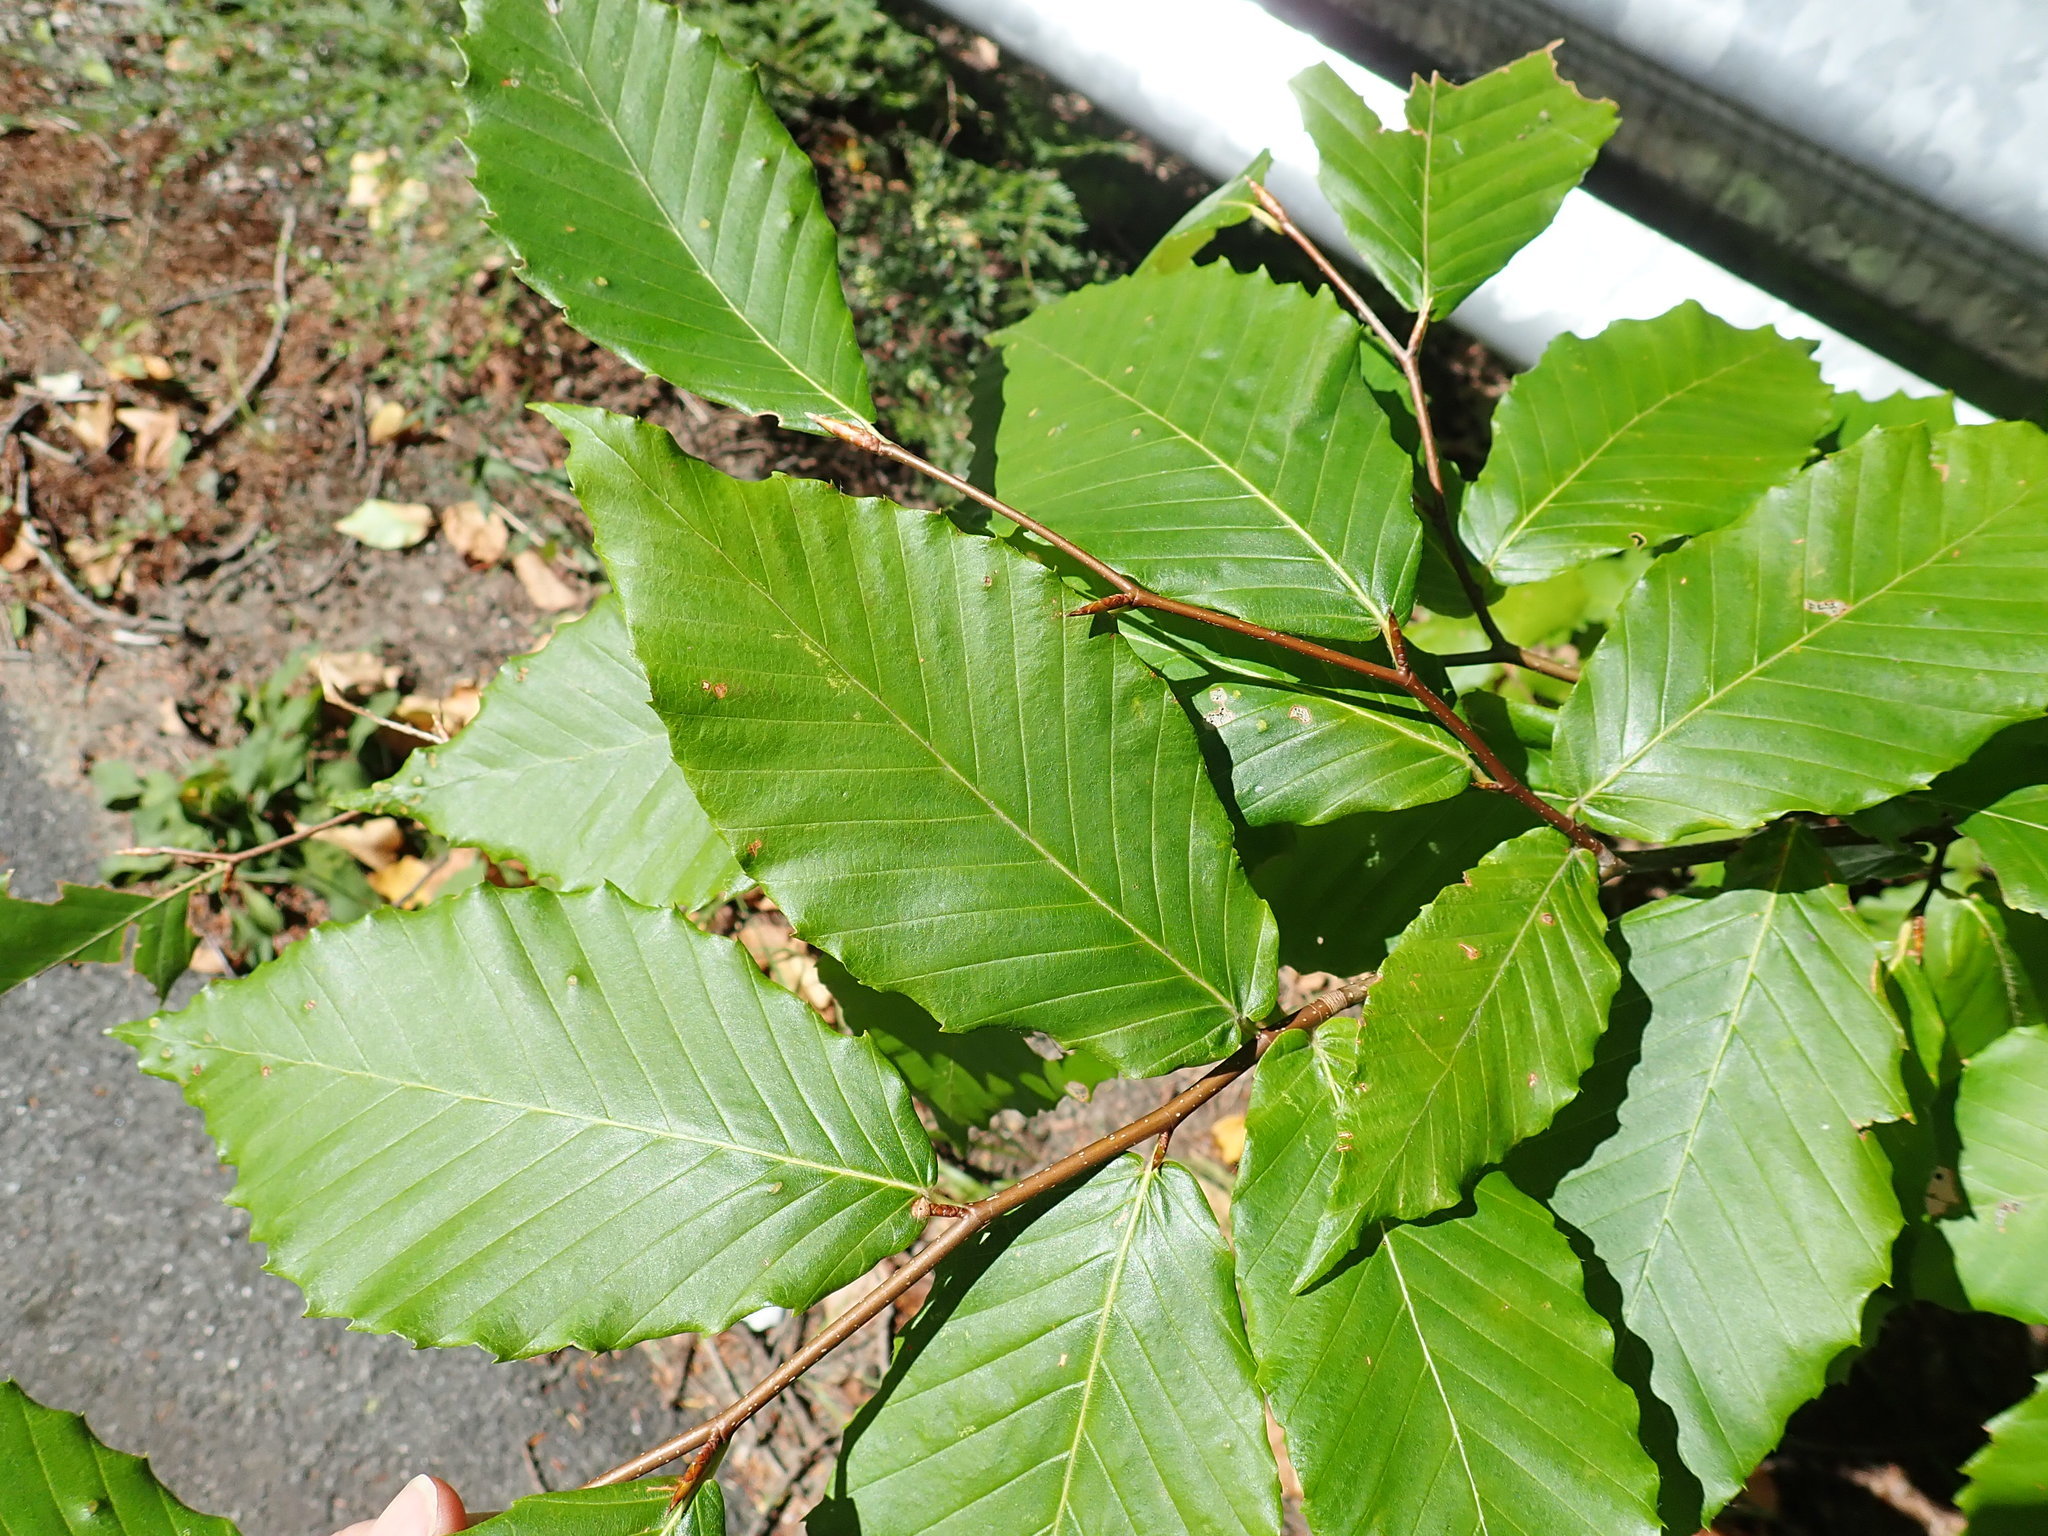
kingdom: Plantae
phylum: Tracheophyta
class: Magnoliopsida
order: Fagales
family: Fagaceae
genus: Fagus
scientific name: Fagus grandifolia
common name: American beech
